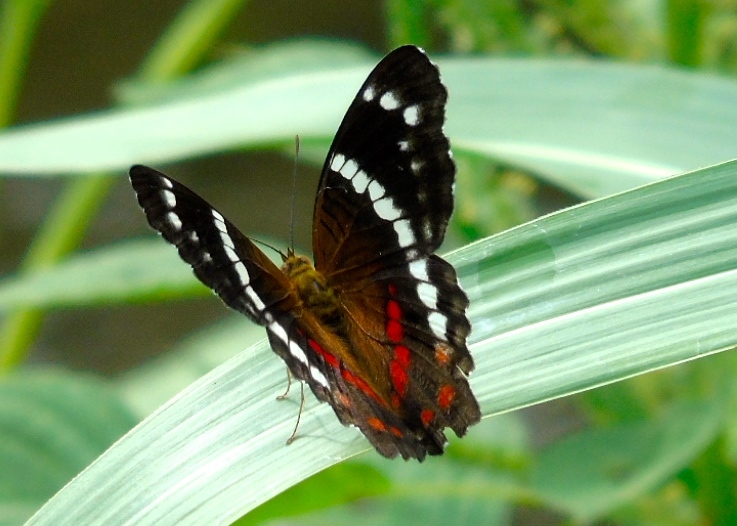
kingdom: Animalia
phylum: Arthropoda
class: Insecta
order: Lepidoptera
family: Nymphalidae
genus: Anartia
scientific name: Anartia fatima
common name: Banded peacock
